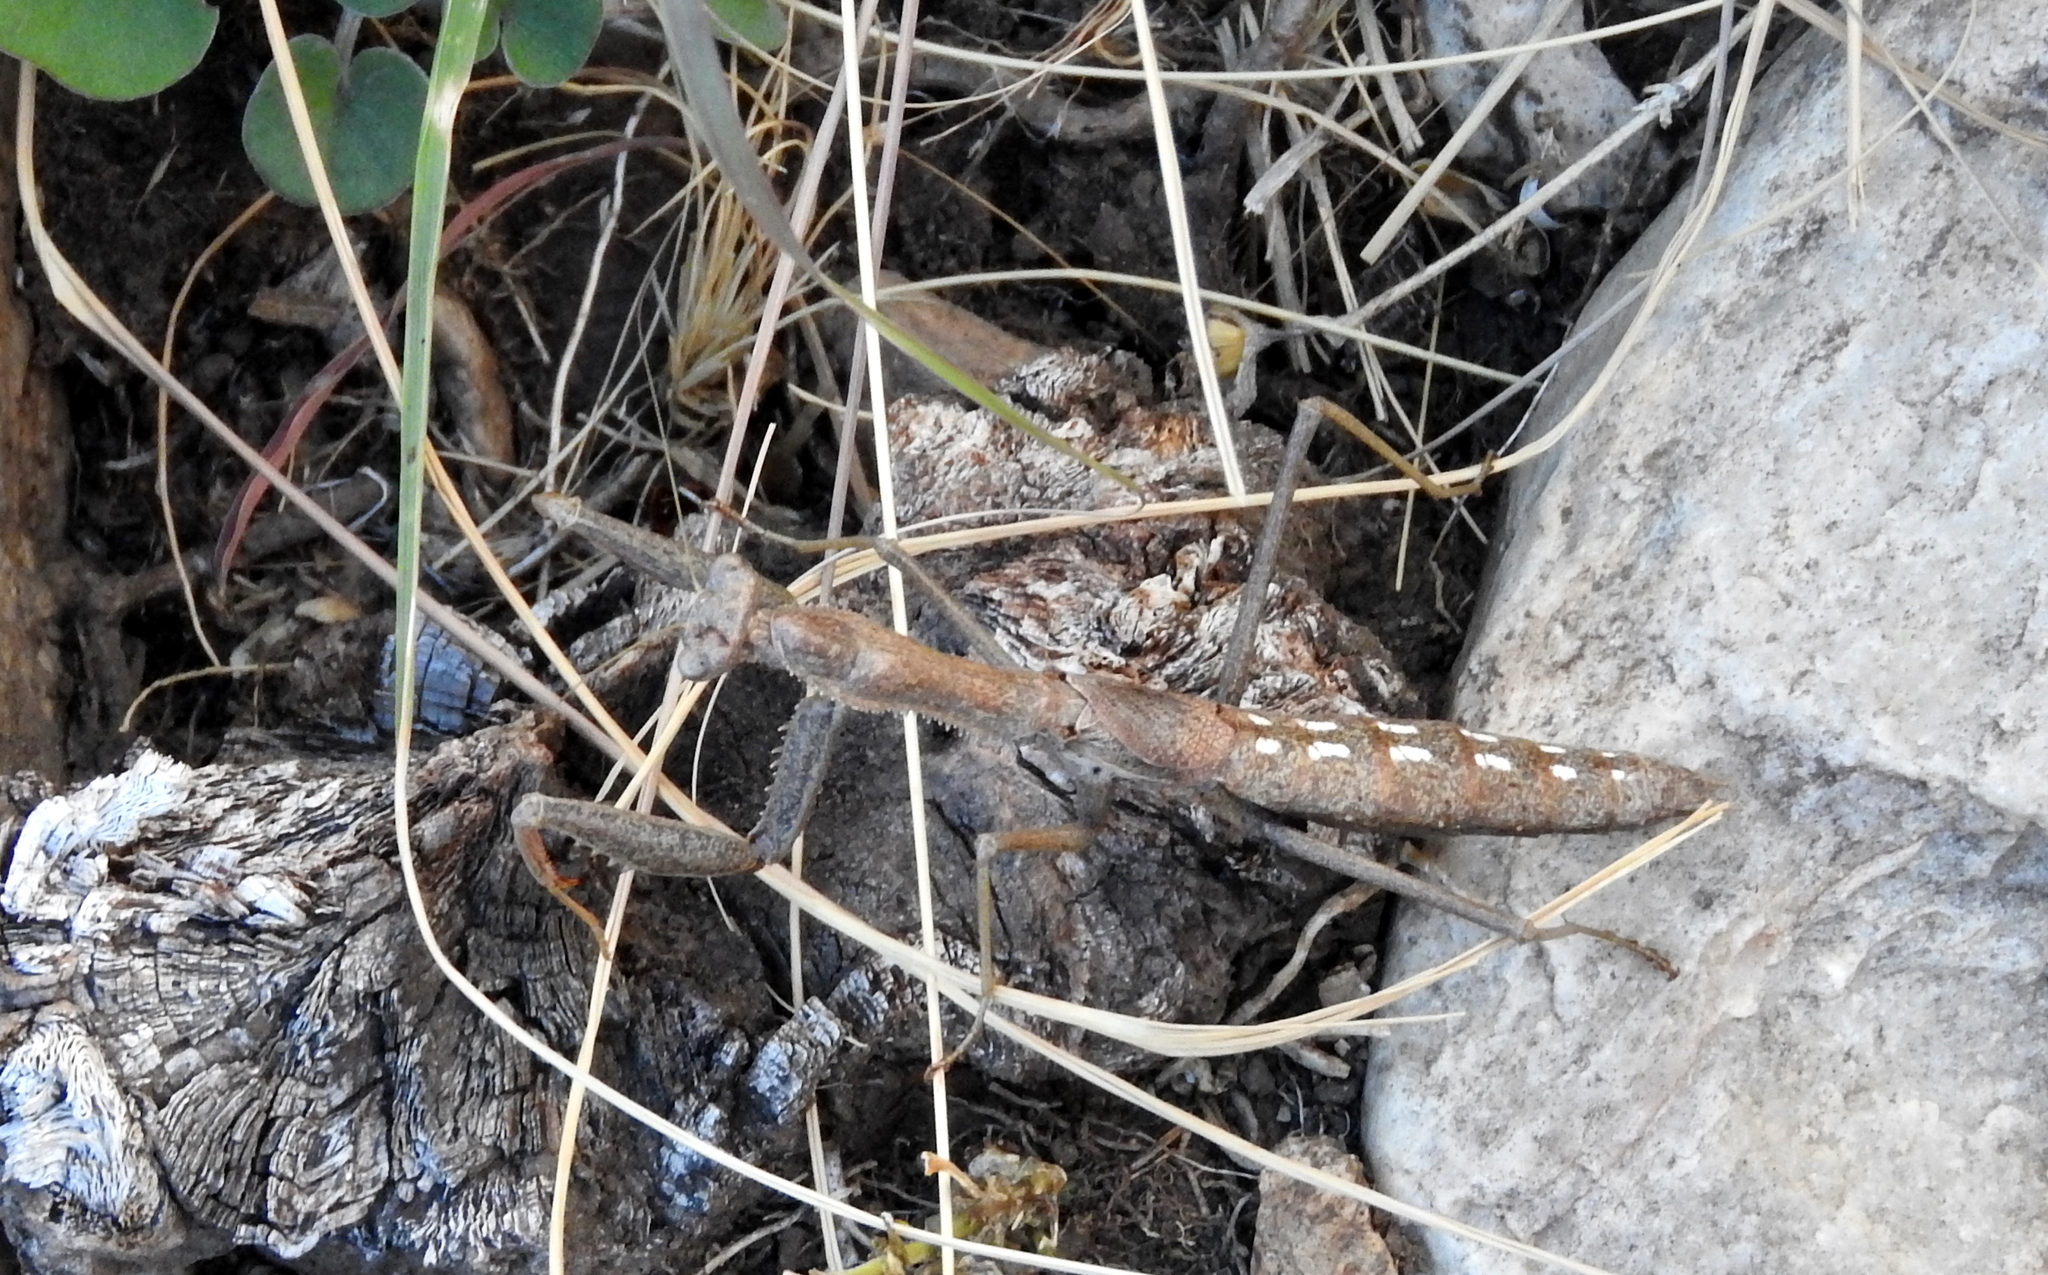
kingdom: Animalia
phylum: Arthropoda
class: Insecta
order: Mantodea
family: Coptopterygidae
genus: Coptopteryx
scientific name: Coptopteryx gayi
